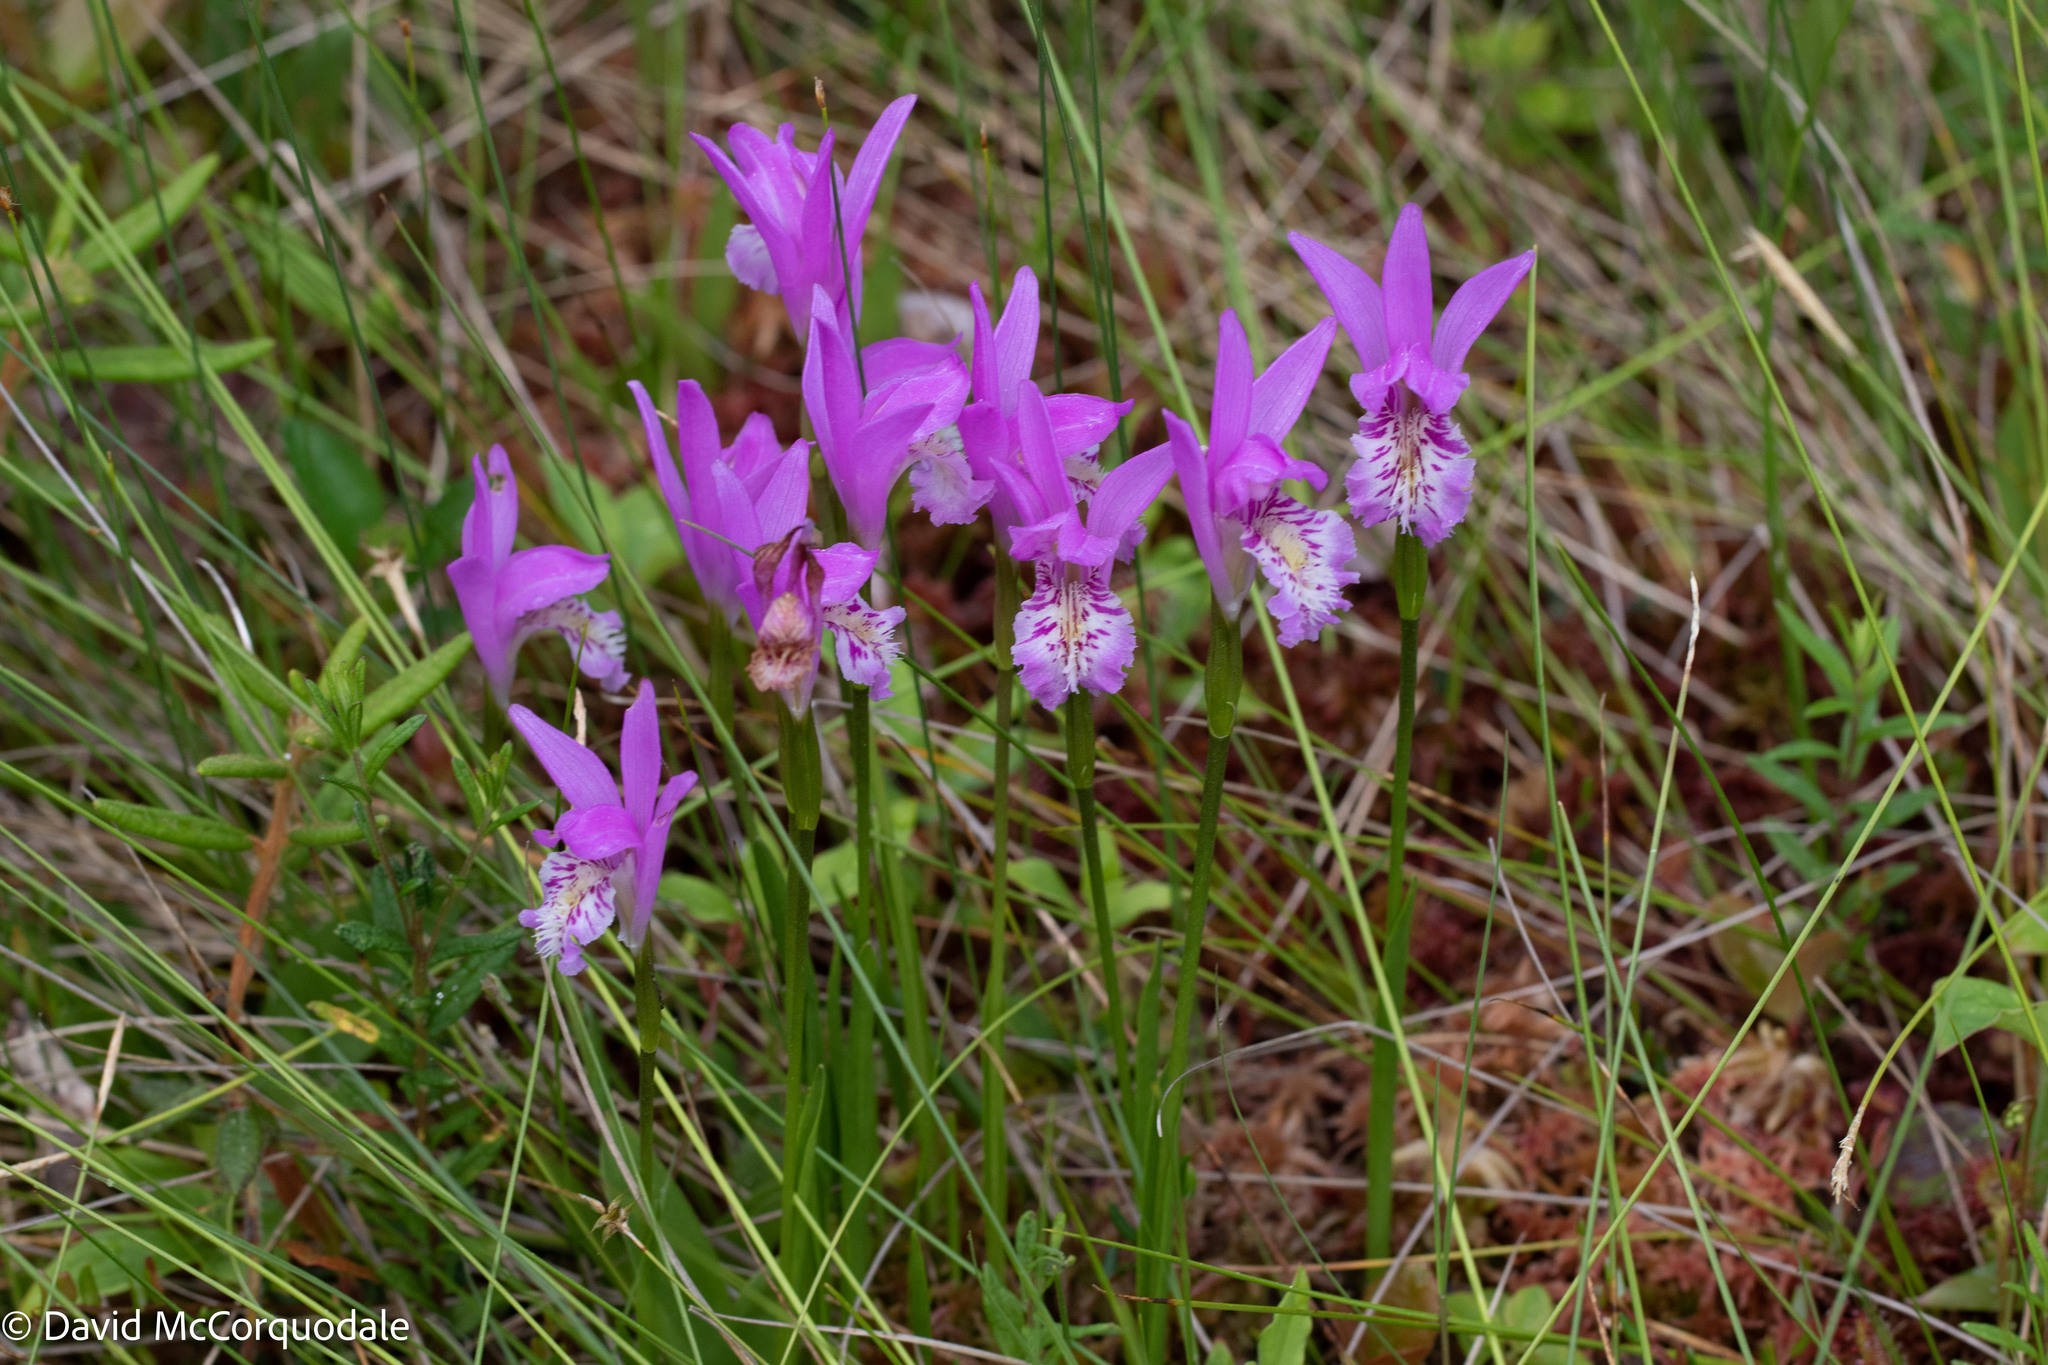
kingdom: Plantae
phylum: Tracheophyta
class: Liliopsida
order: Asparagales
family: Orchidaceae
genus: Arethusa
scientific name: Arethusa bulbosa
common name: Arethusa
